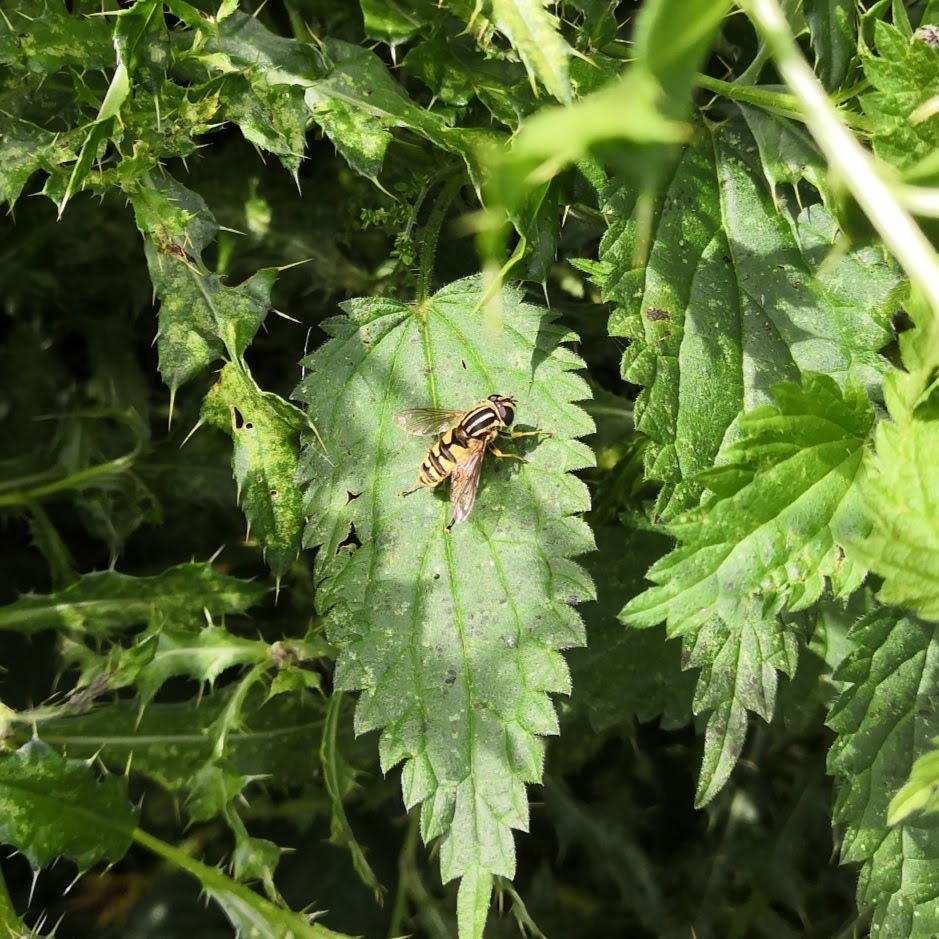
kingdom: Animalia
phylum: Arthropoda
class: Insecta
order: Diptera
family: Syrphidae
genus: Helophilus
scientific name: Helophilus pendulus
